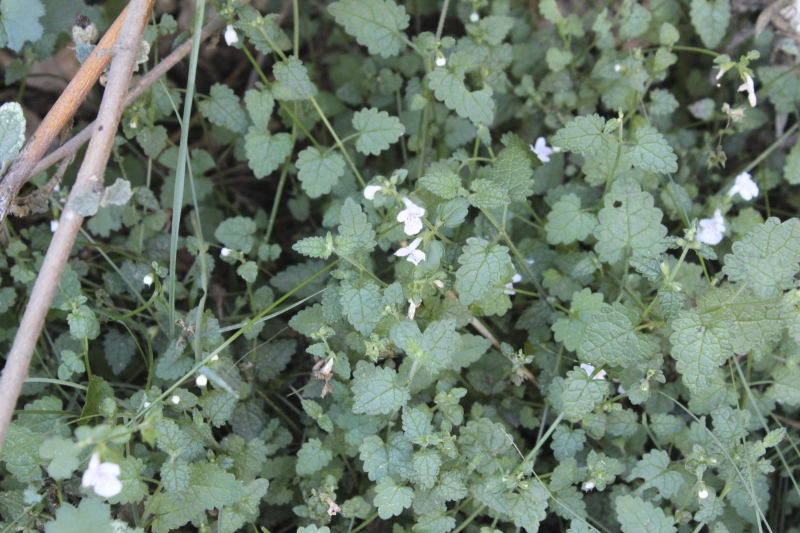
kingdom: Plantae
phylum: Tracheophyta
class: Magnoliopsida
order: Lamiales
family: Lamiaceae
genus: Stachys
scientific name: Stachys aethiopica
